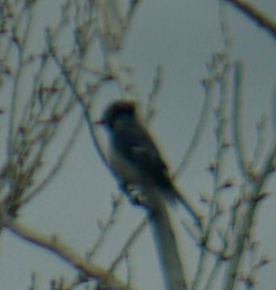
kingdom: Animalia
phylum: Chordata
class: Aves
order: Passeriformes
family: Corvidae
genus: Cyanocitta
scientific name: Cyanocitta cristata
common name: Blue jay
